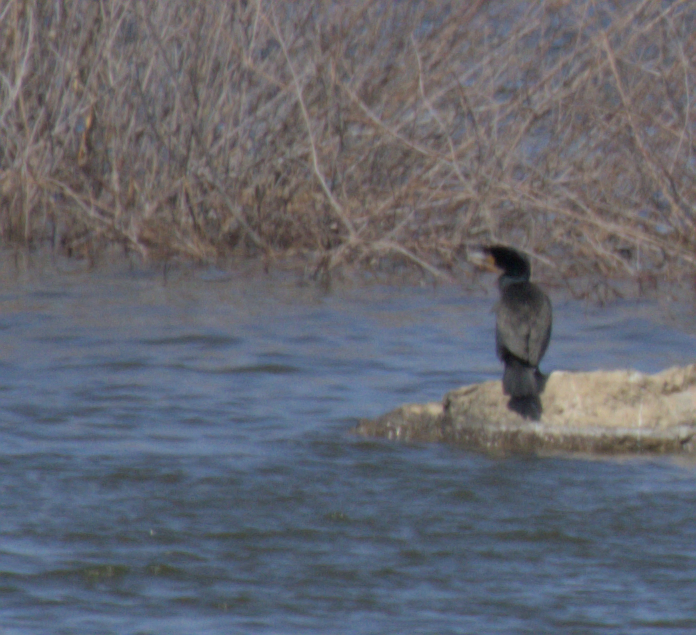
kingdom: Animalia
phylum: Chordata
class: Aves
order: Suliformes
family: Phalacrocoracidae
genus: Phalacrocorax
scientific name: Phalacrocorax auritus
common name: Double-crested cormorant
